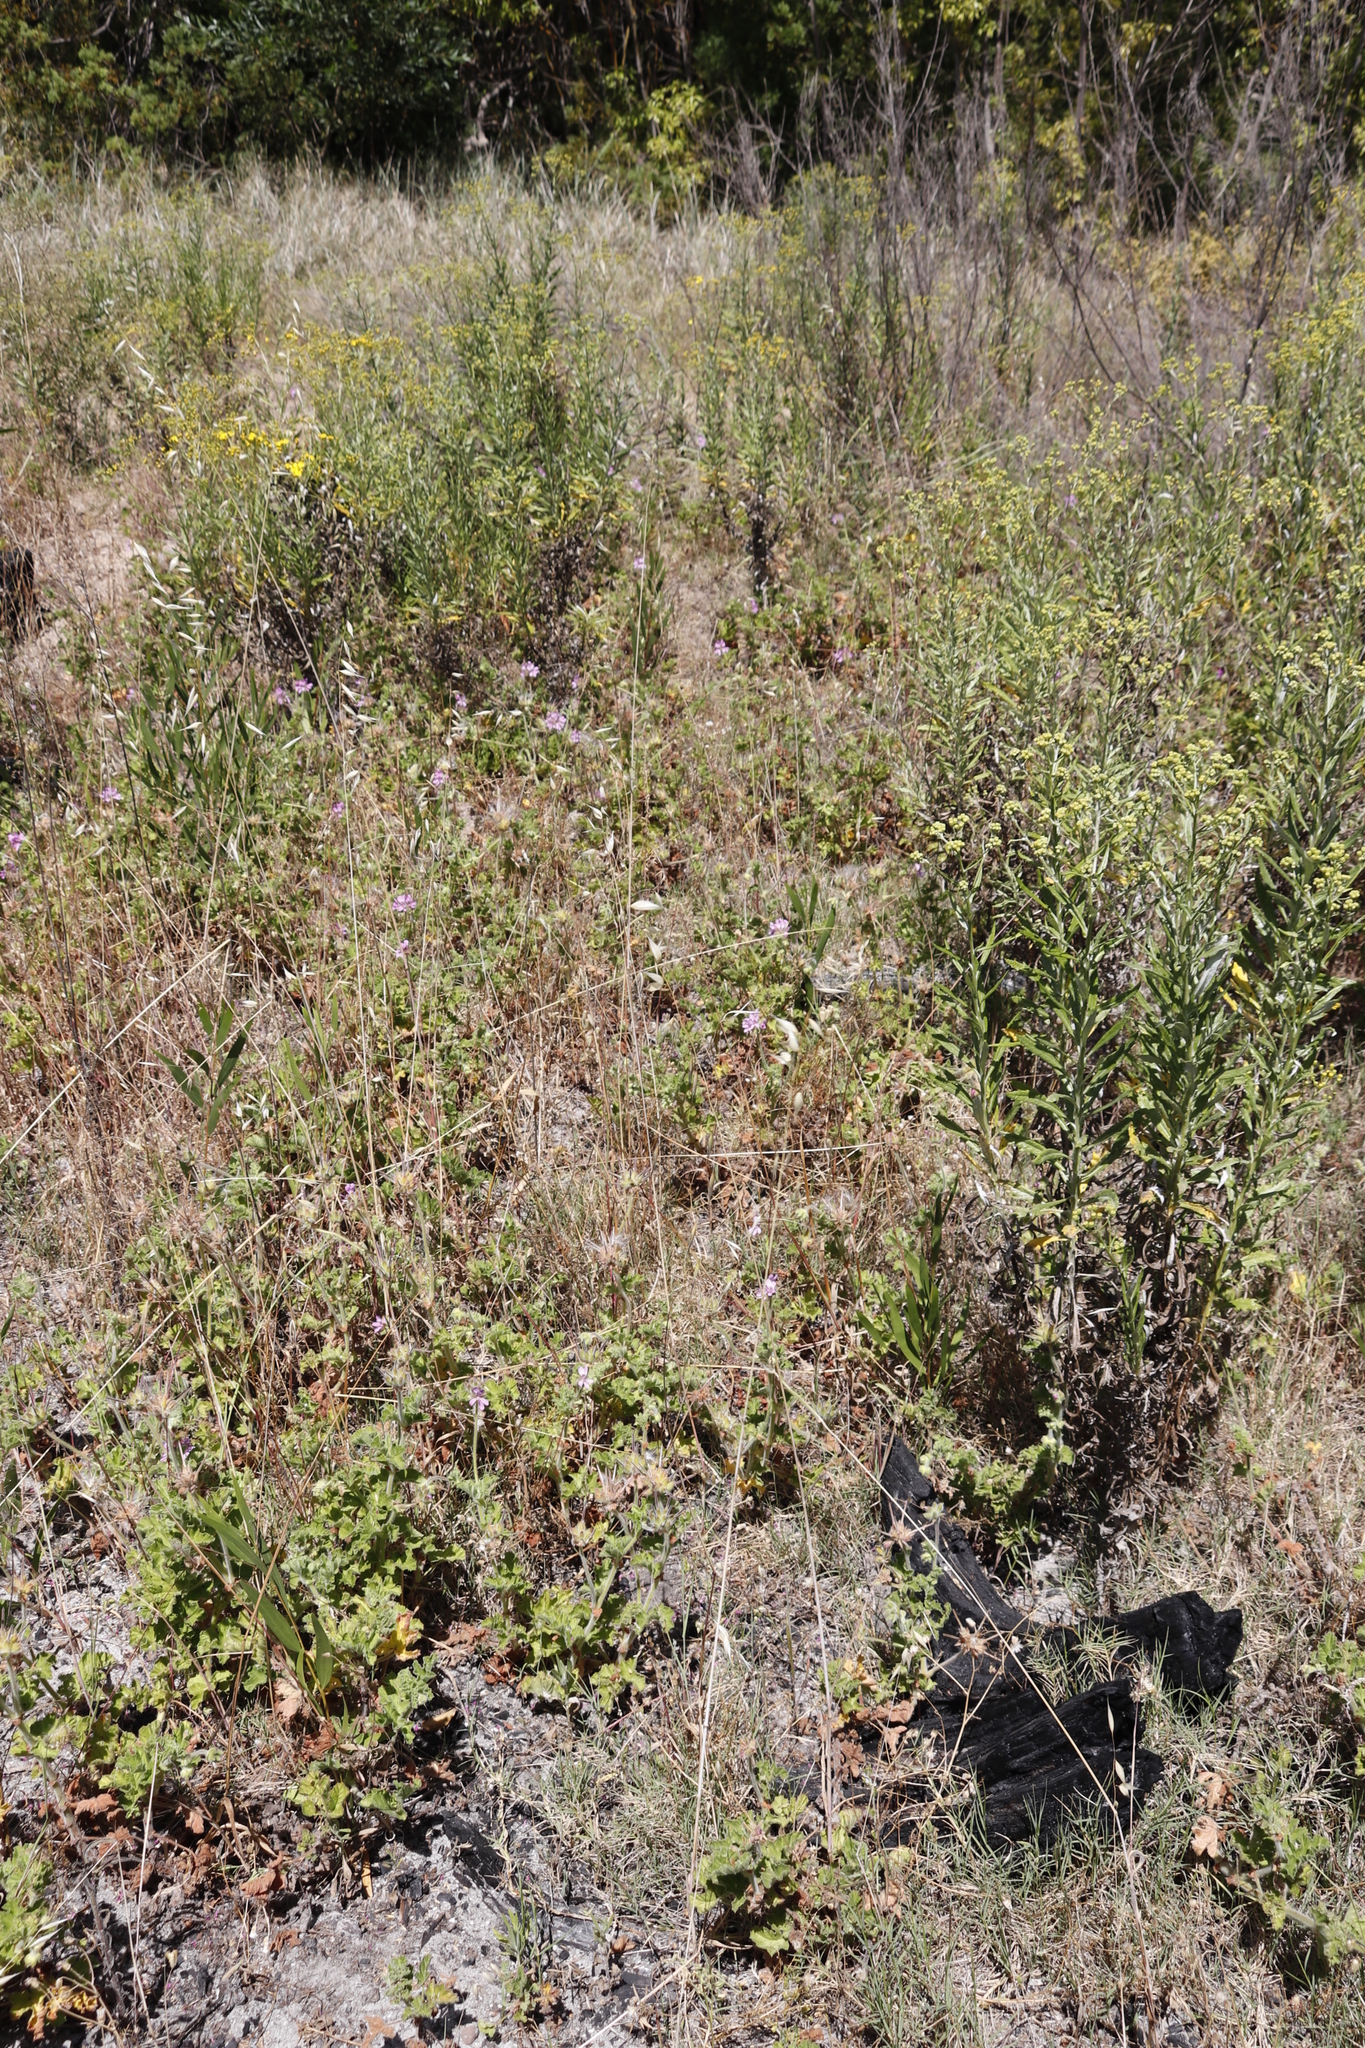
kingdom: Plantae
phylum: Tracheophyta
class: Magnoliopsida
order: Geraniales
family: Geraniaceae
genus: Pelargonium
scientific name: Pelargonium capitatum
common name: Rose scented geranium
